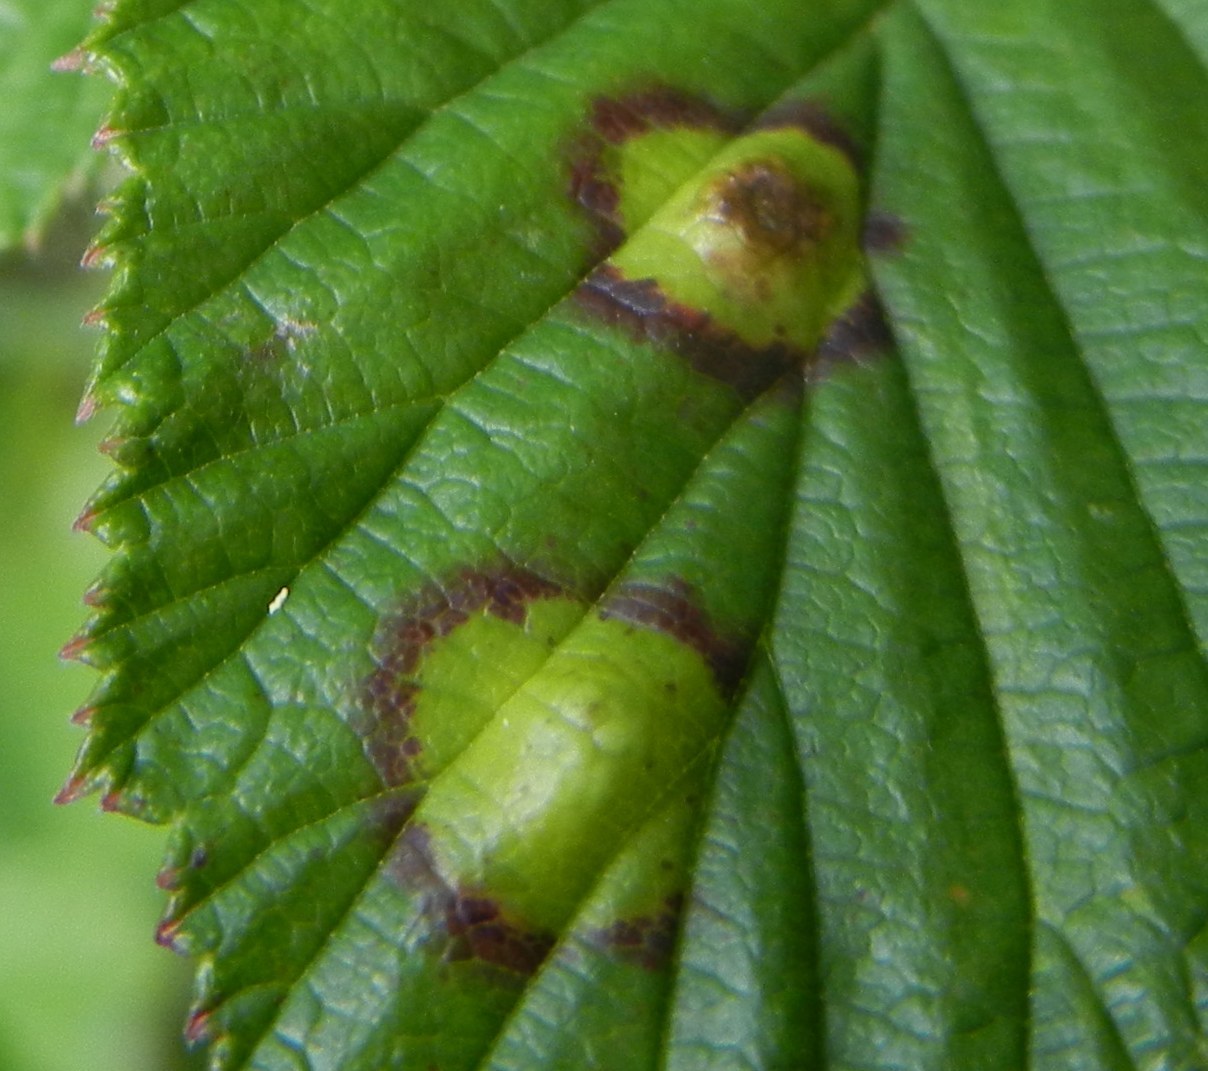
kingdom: Animalia
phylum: Arthropoda
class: Insecta
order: Diptera
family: Cecidomyiidae
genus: Dasineura
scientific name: Dasineura pustulans
